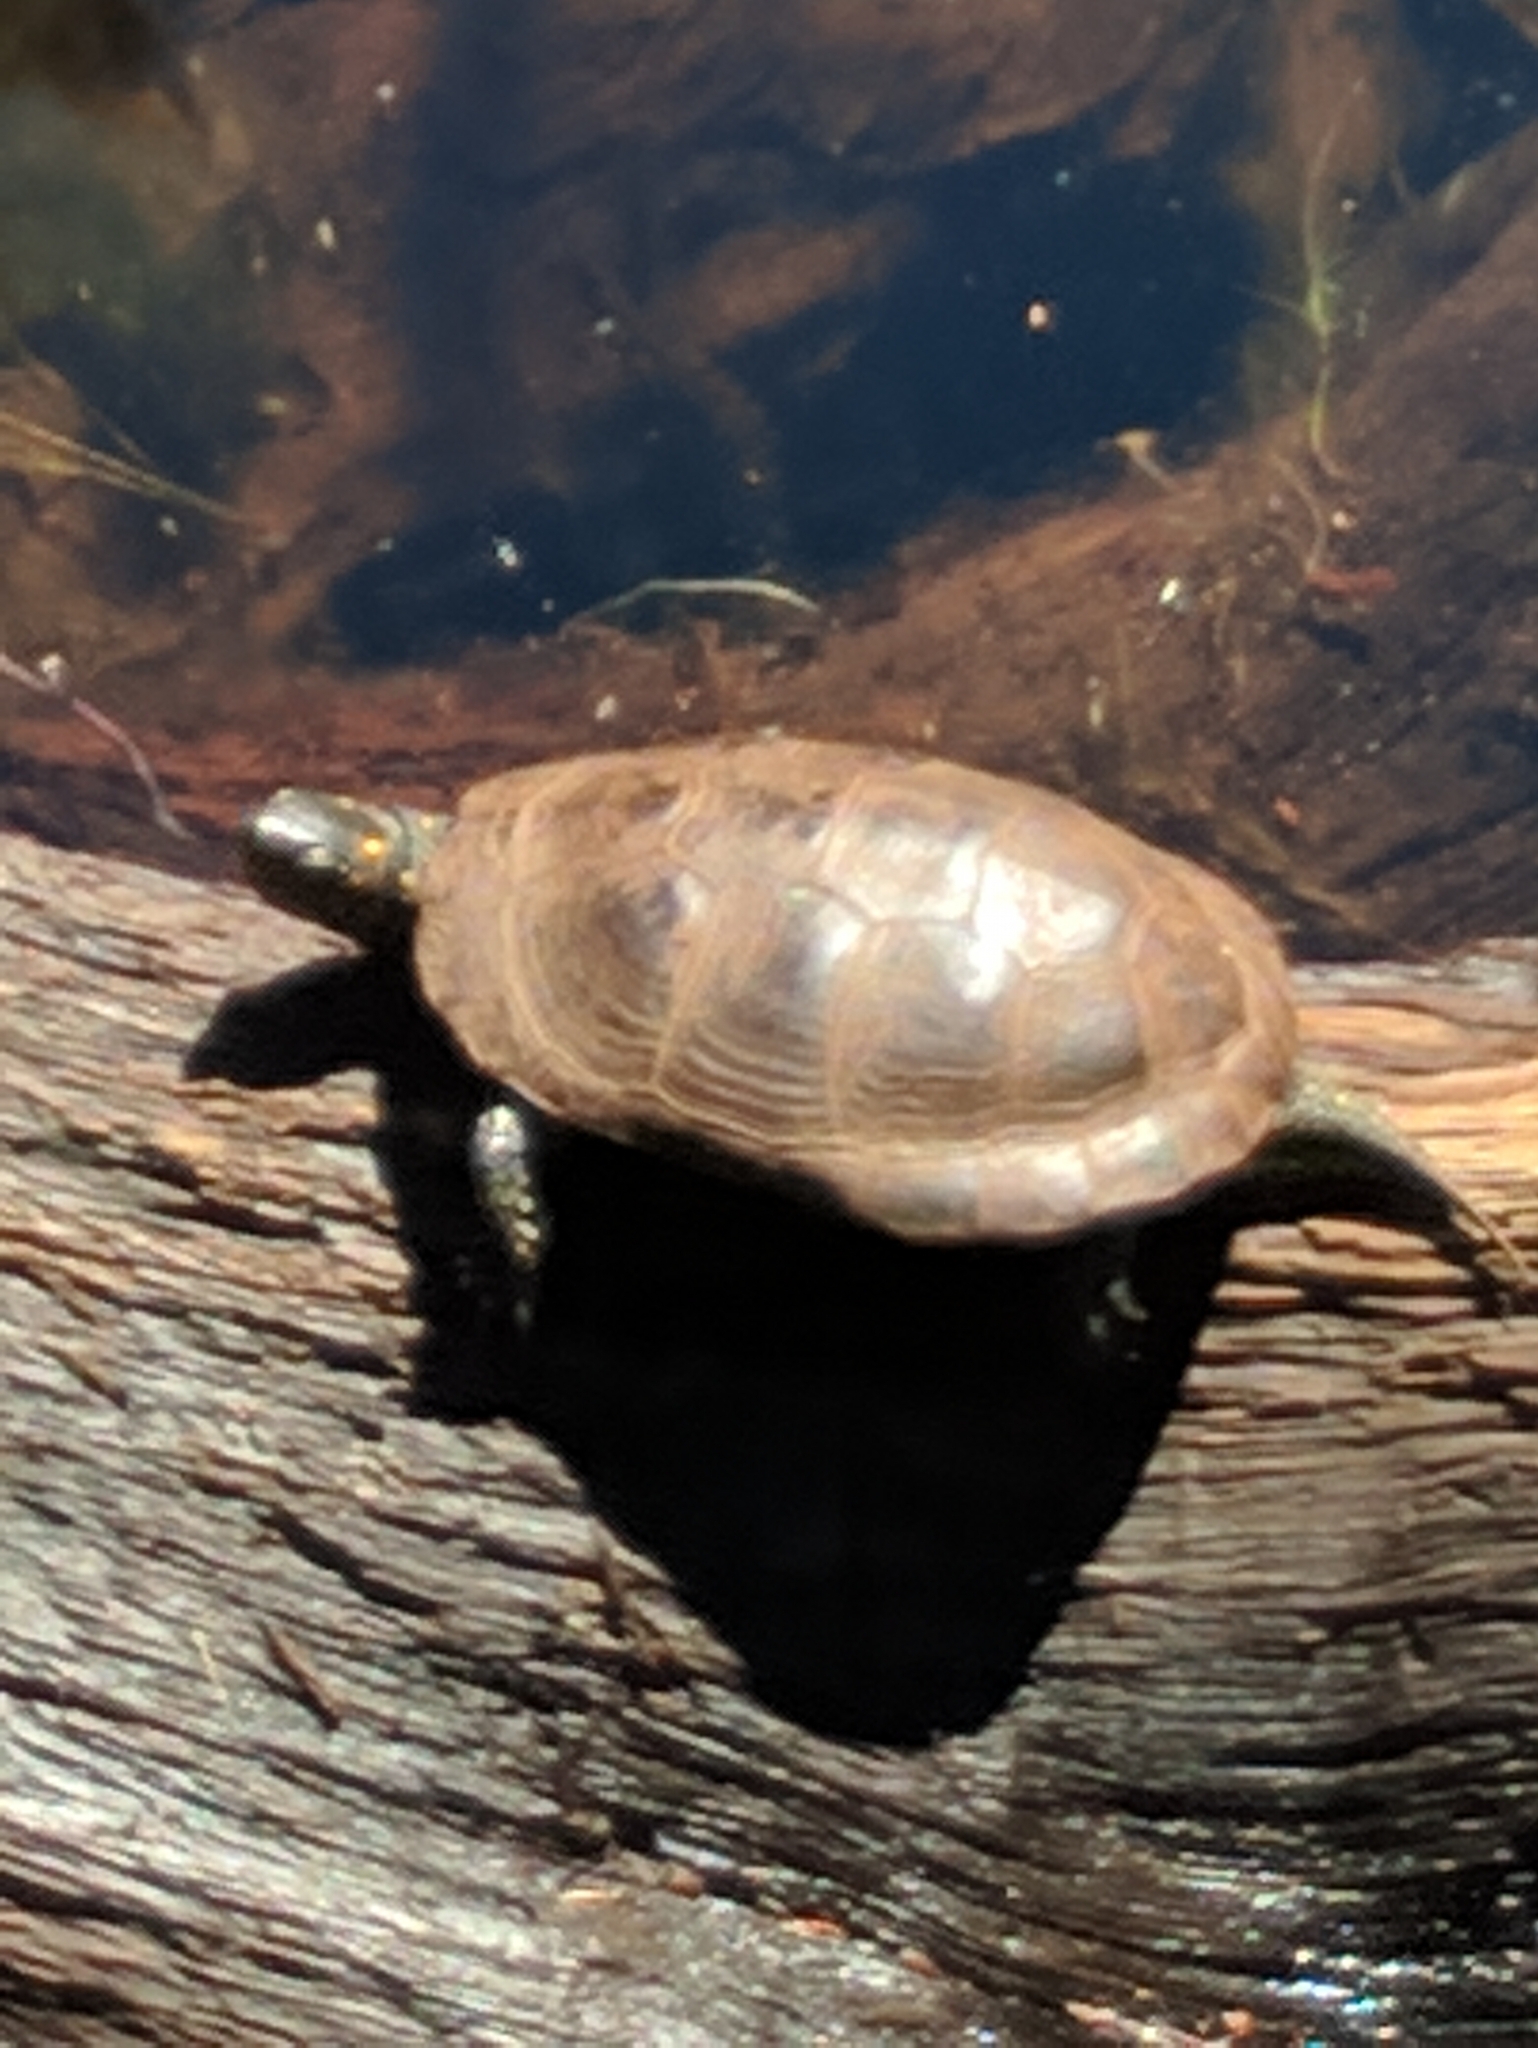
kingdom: Animalia
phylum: Chordata
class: Testudines
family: Emydidae
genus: Clemmys
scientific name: Clemmys guttata
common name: Spotted turtle
